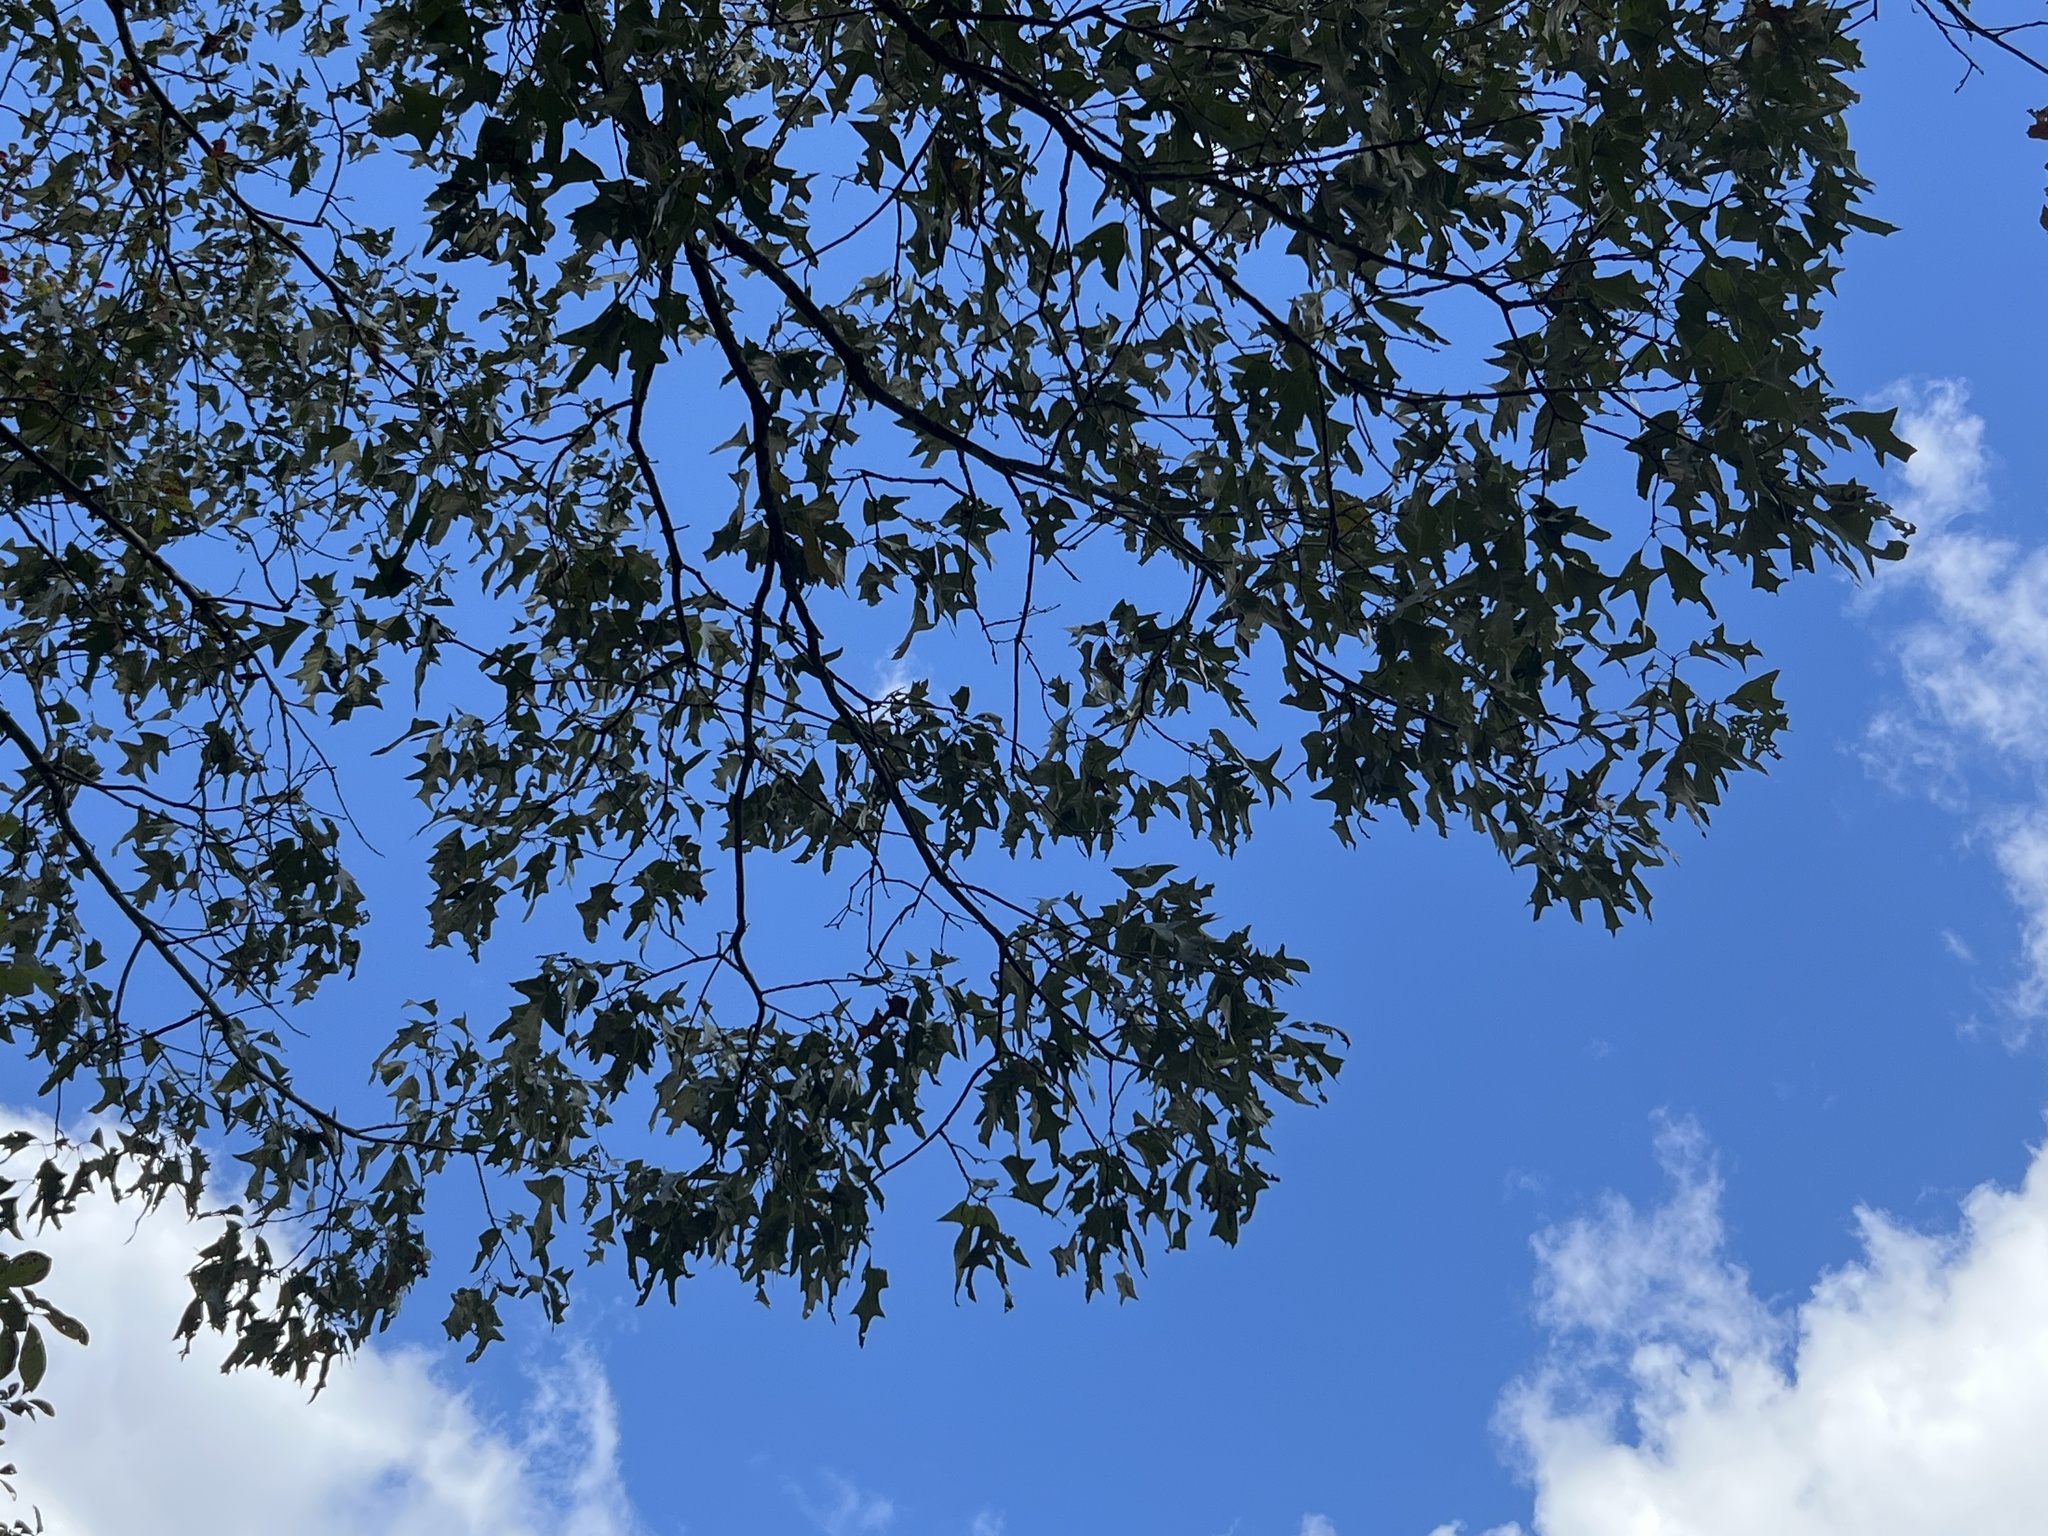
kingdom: Plantae
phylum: Tracheophyta
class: Magnoliopsida
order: Fagales
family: Fagaceae
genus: Quercus
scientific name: Quercus falcata
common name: Southern red oak
